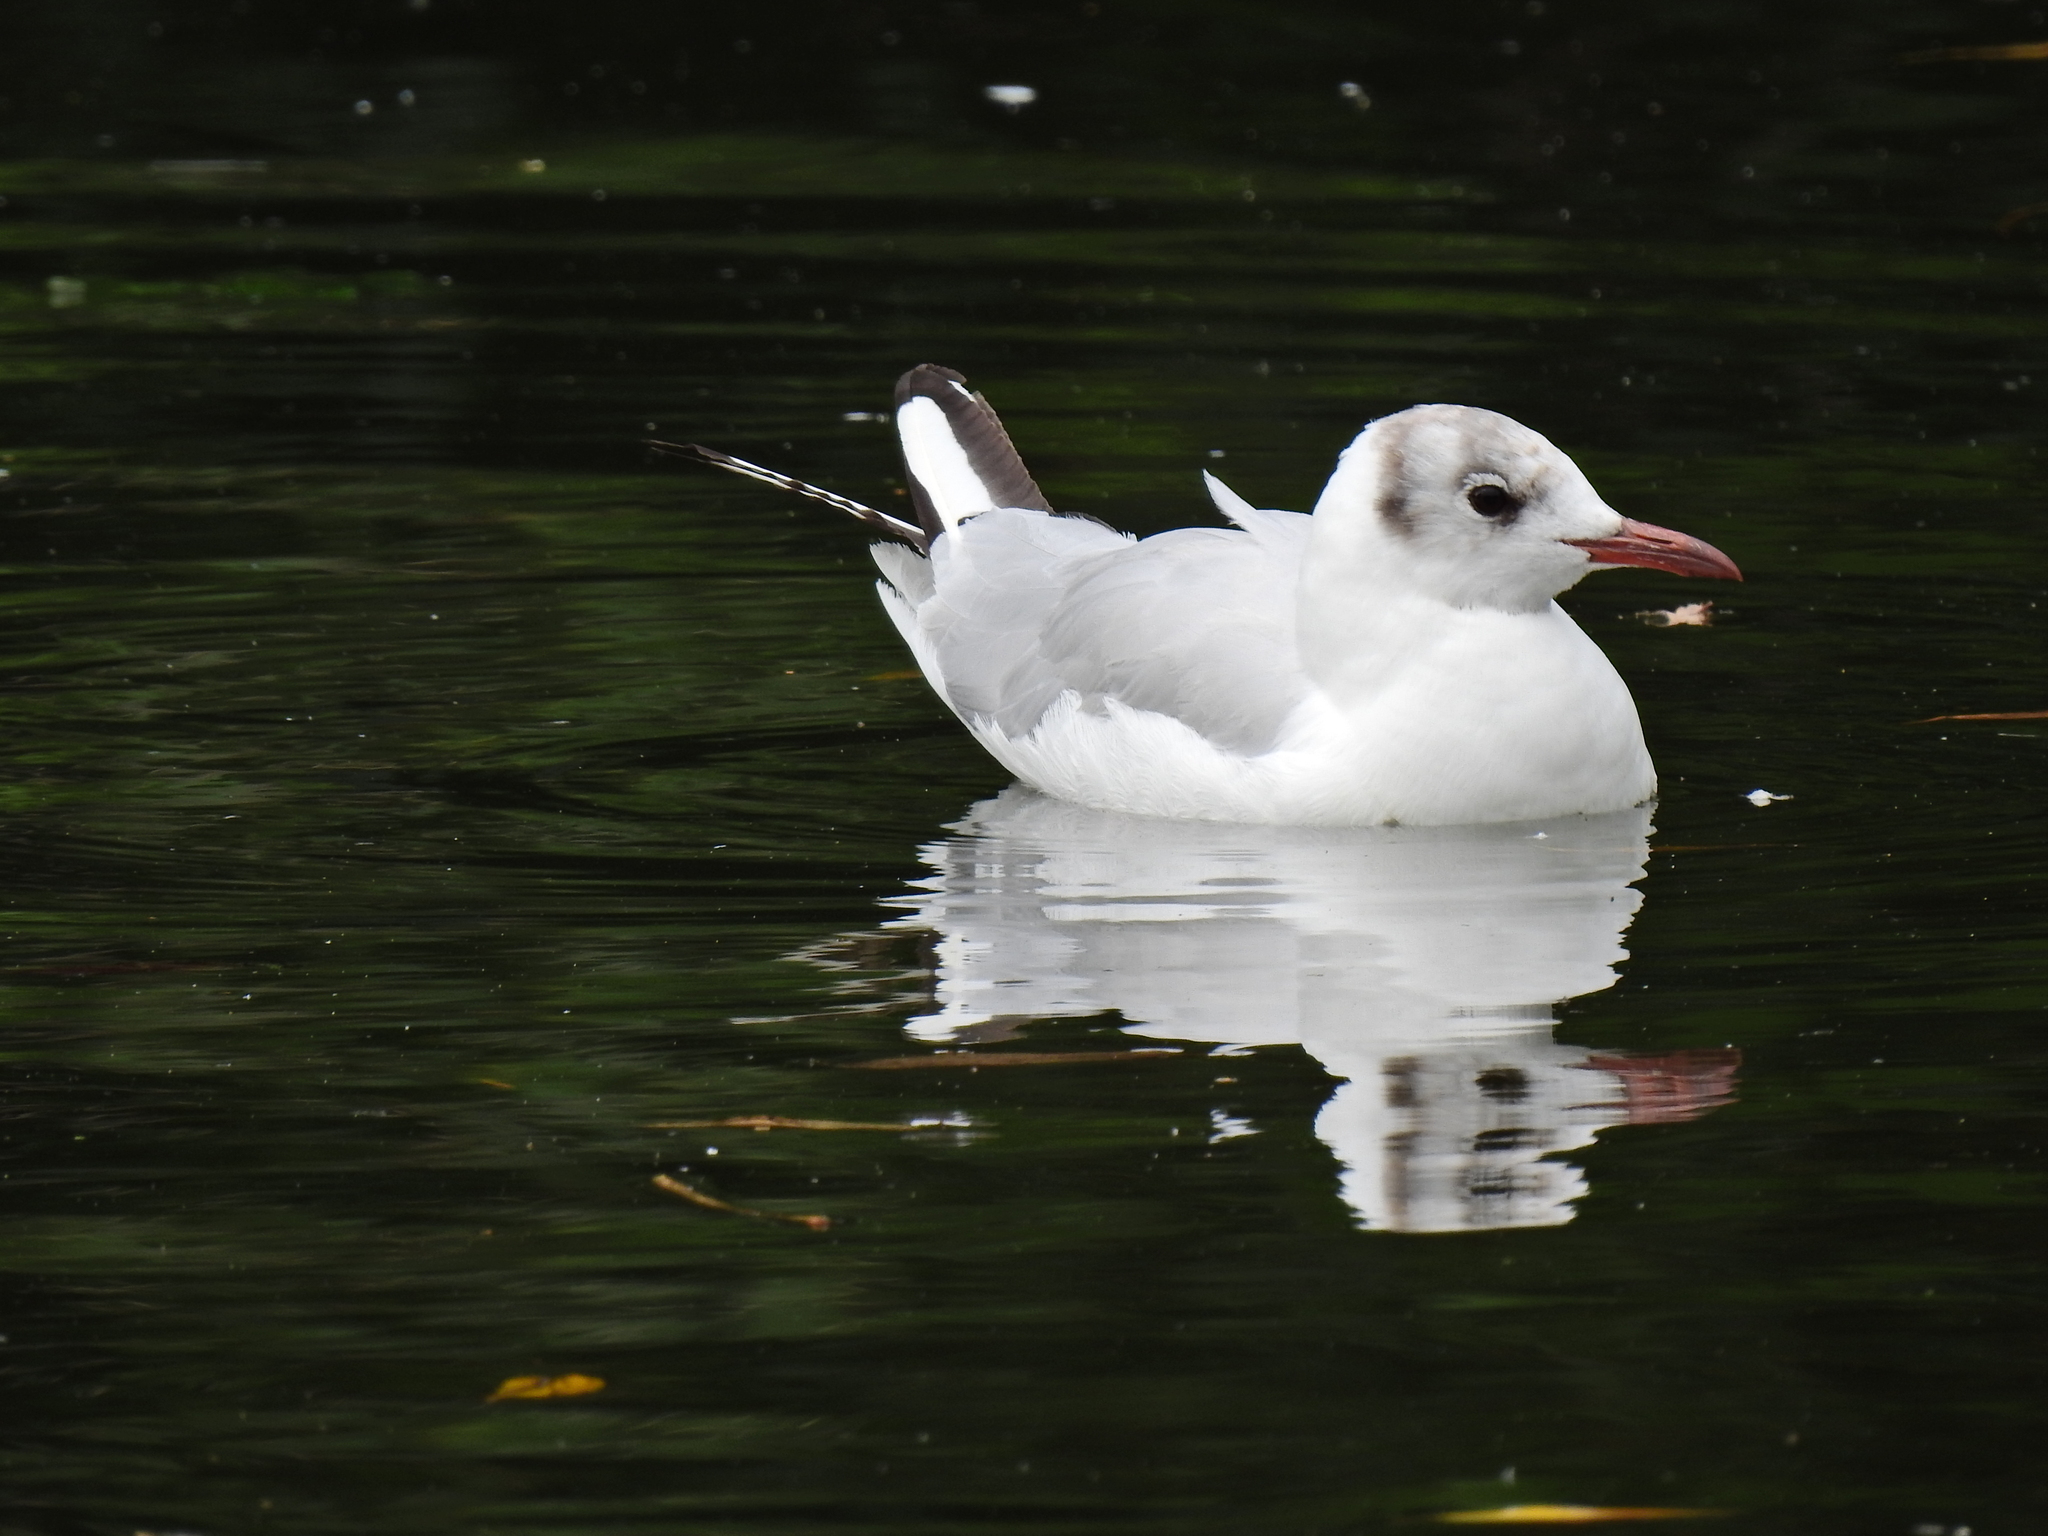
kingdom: Animalia
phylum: Chordata
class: Aves
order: Charadriiformes
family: Laridae
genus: Chroicocephalus
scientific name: Chroicocephalus ridibundus
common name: Black-headed gull
